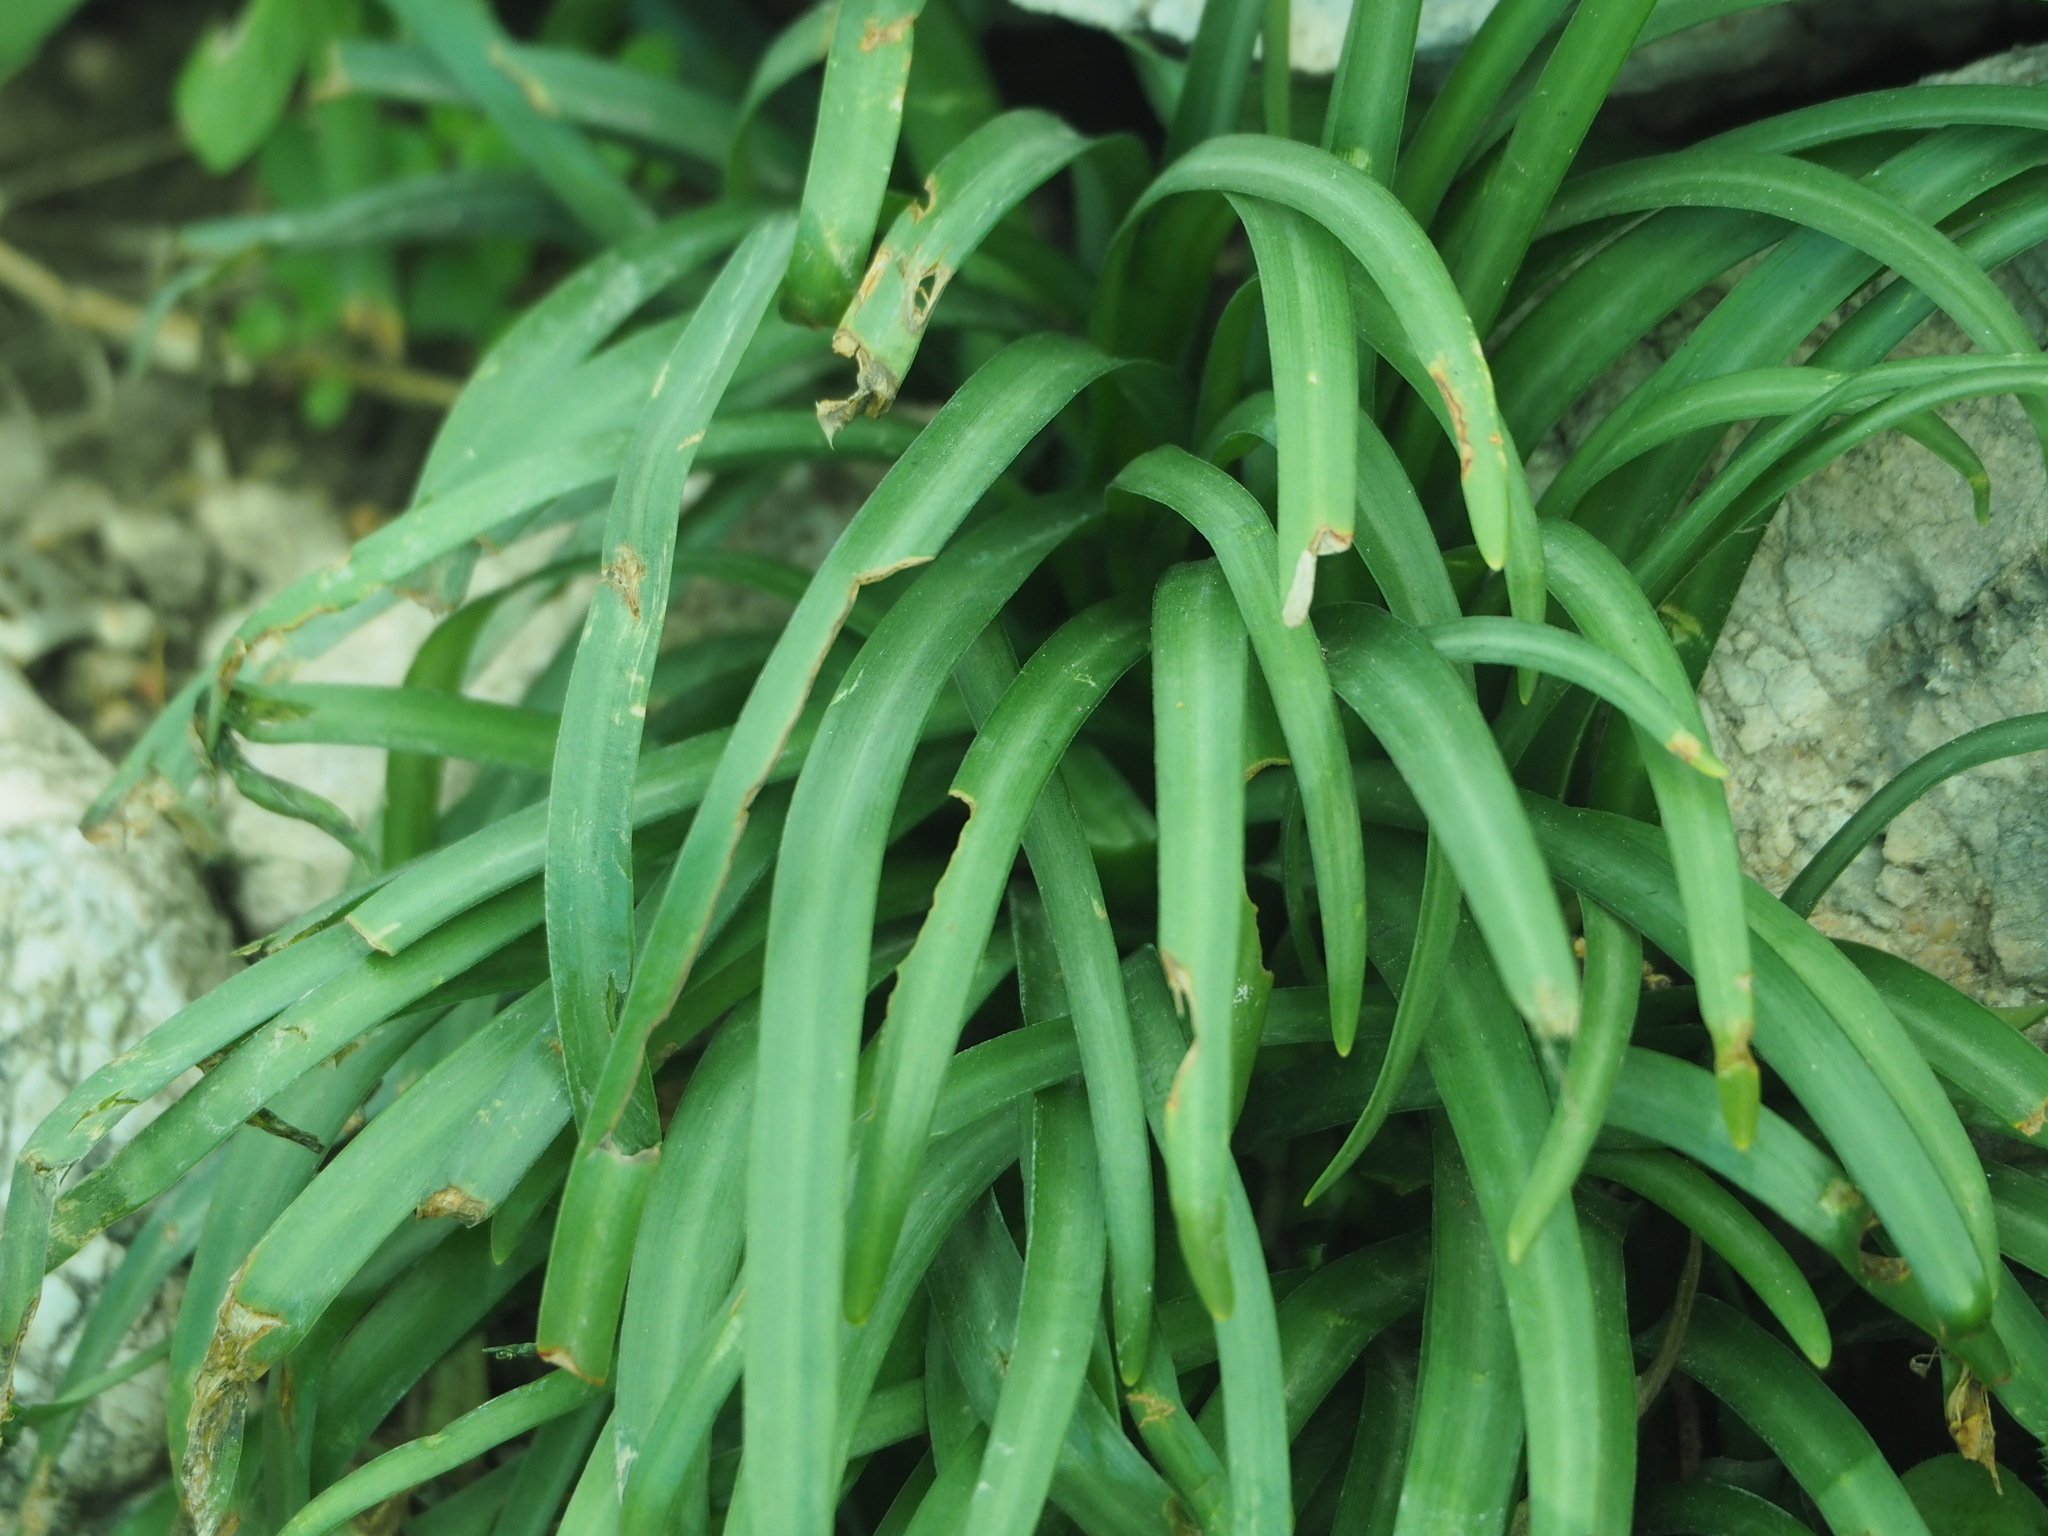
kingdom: Plantae
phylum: Tracheophyta
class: Liliopsida
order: Asparagales
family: Amaryllidaceae
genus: Sternbergia
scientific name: Sternbergia lutea
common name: Winter daffodil
